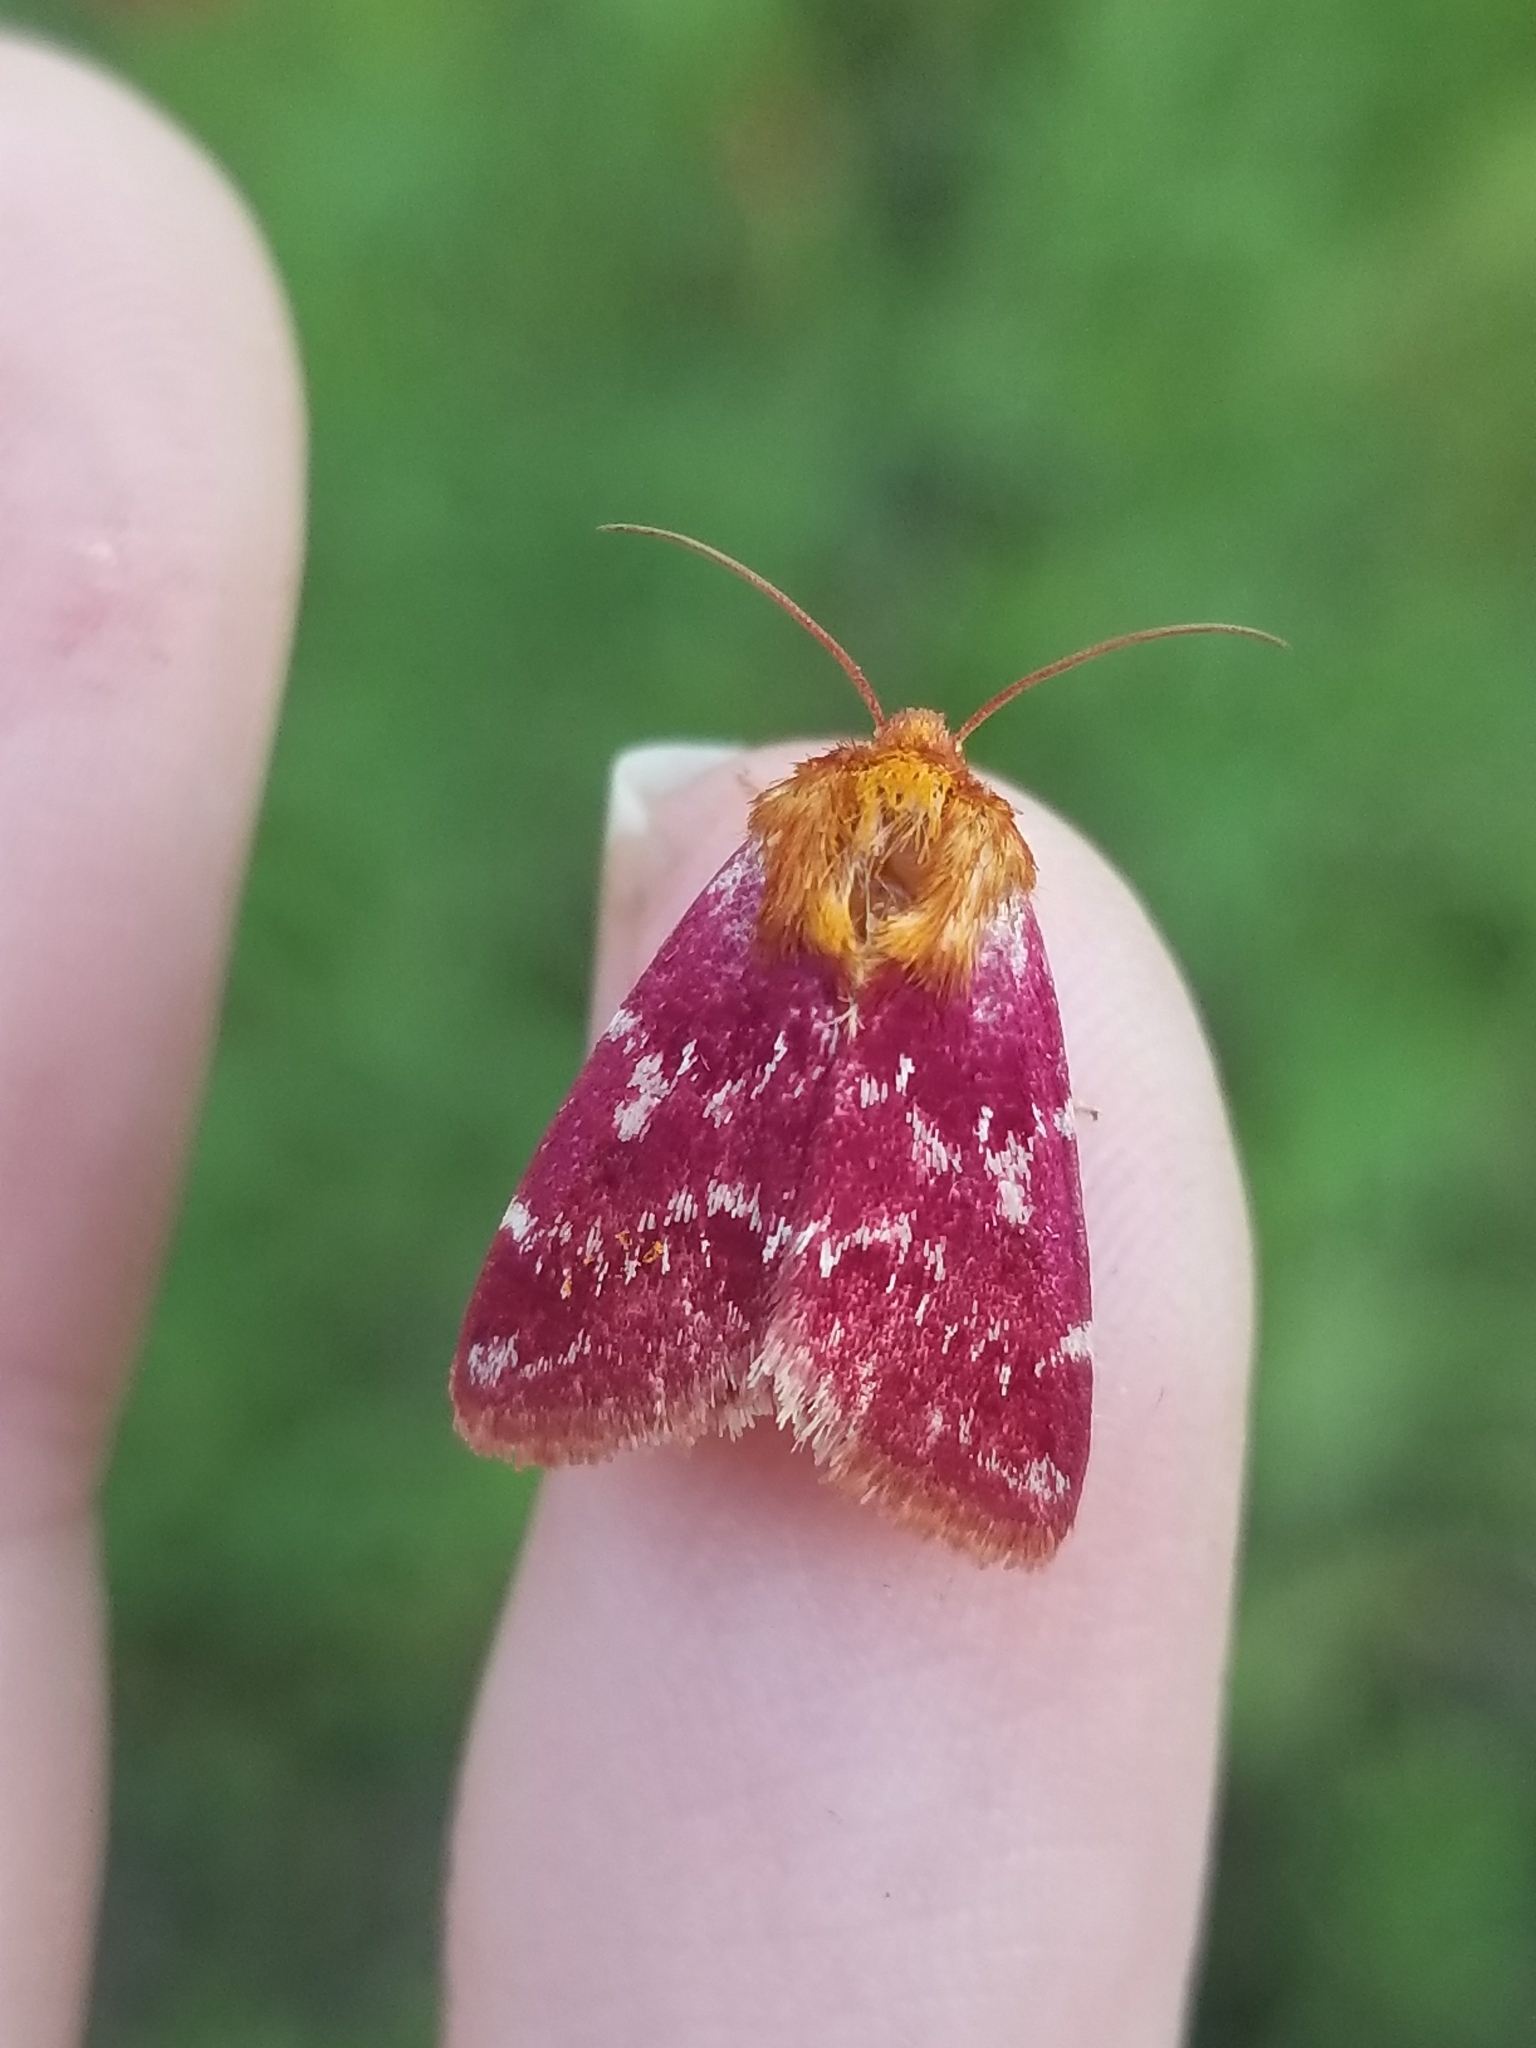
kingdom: Animalia
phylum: Arthropoda
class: Insecta
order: Lepidoptera
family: Noctuidae
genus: Schinia
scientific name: Schinia volupia
